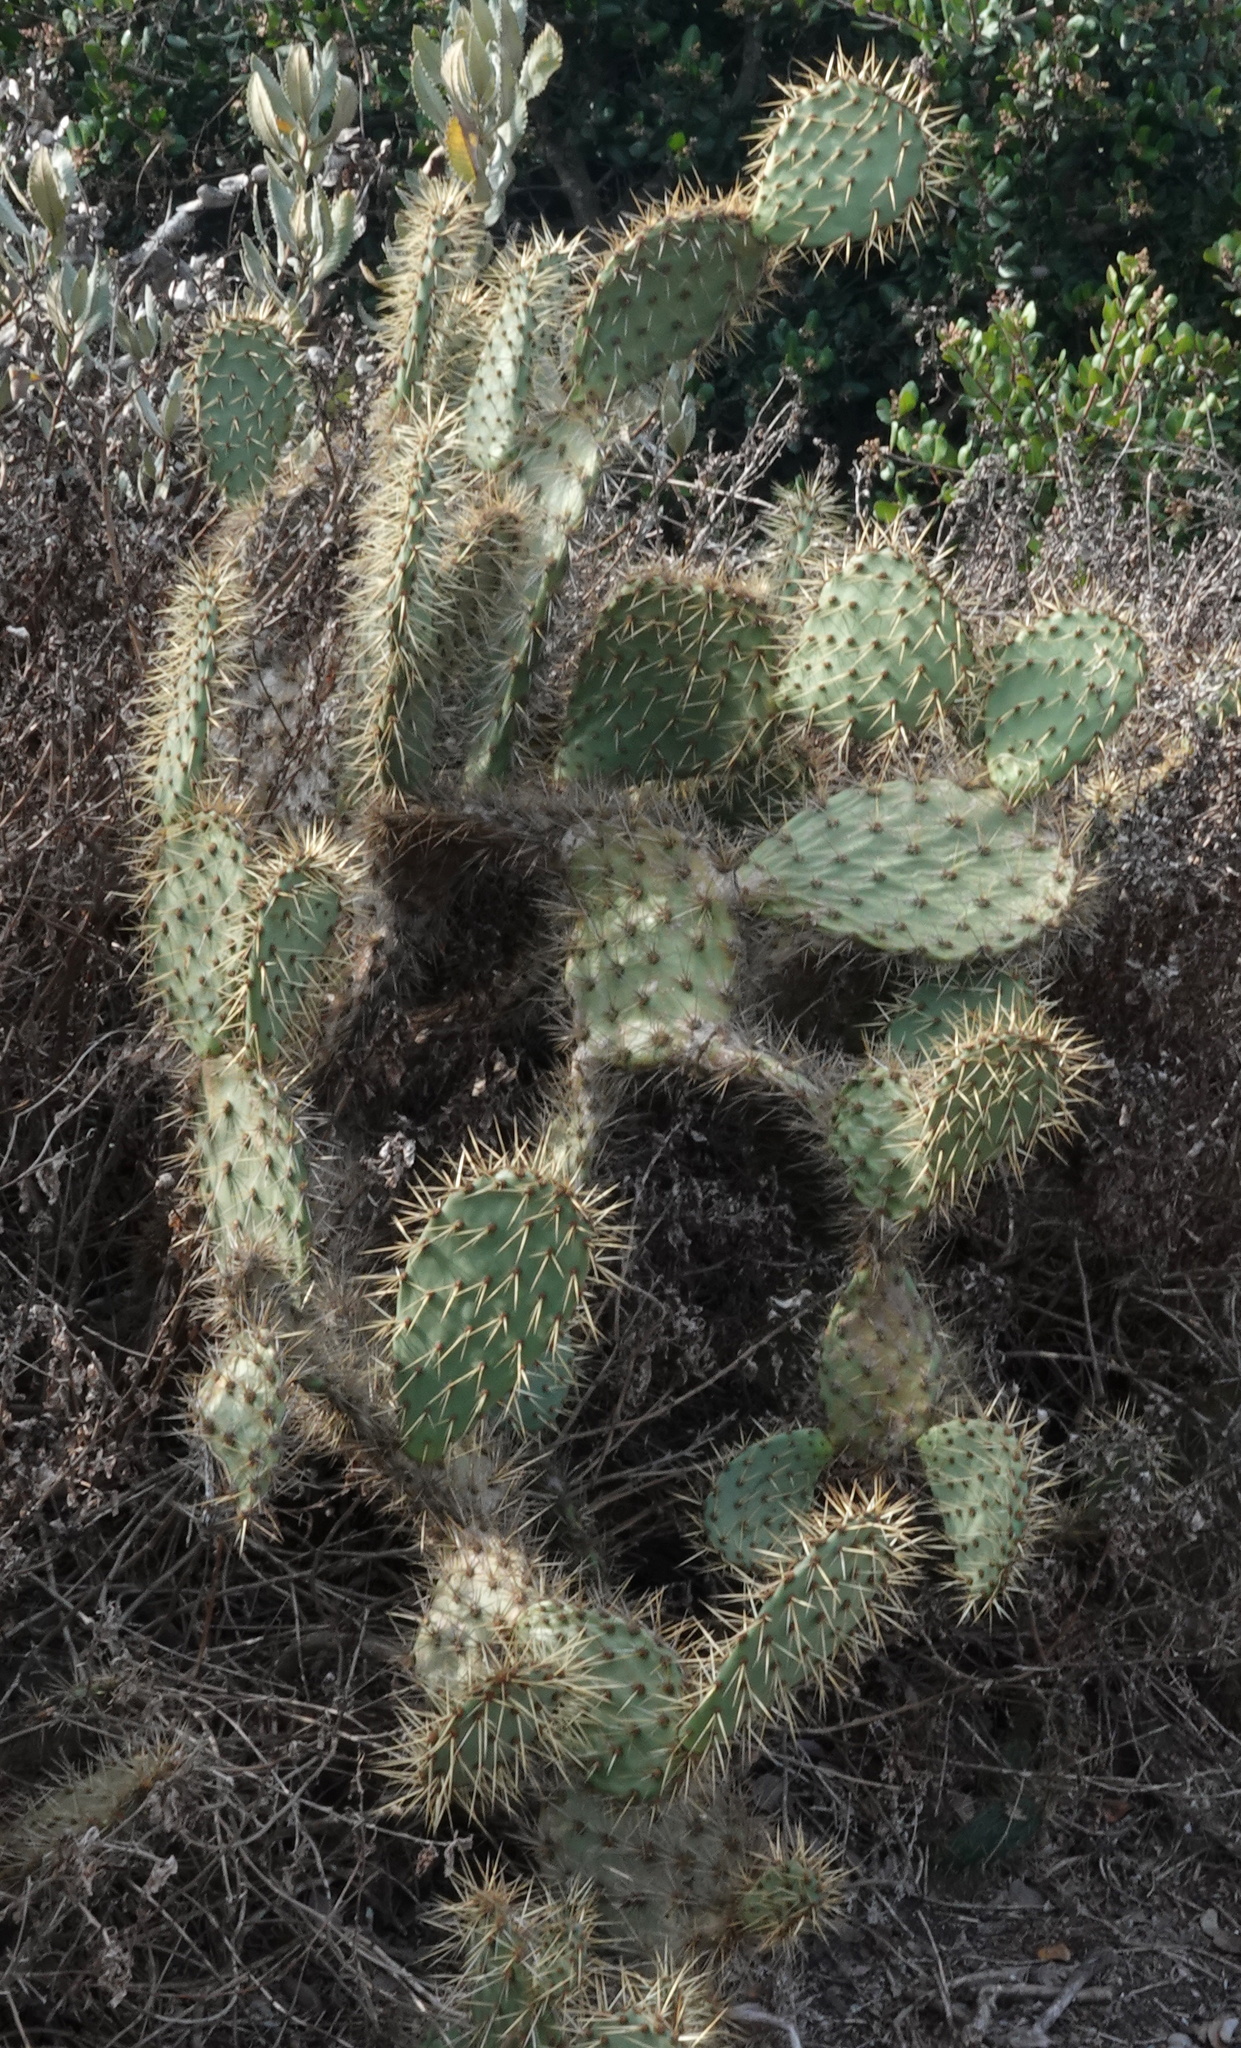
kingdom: Plantae
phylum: Tracheophyta
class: Magnoliopsida
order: Caryophyllales
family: Cactaceae
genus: Opuntia
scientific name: Opuntia littoralis
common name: Coastal prickly-pear
